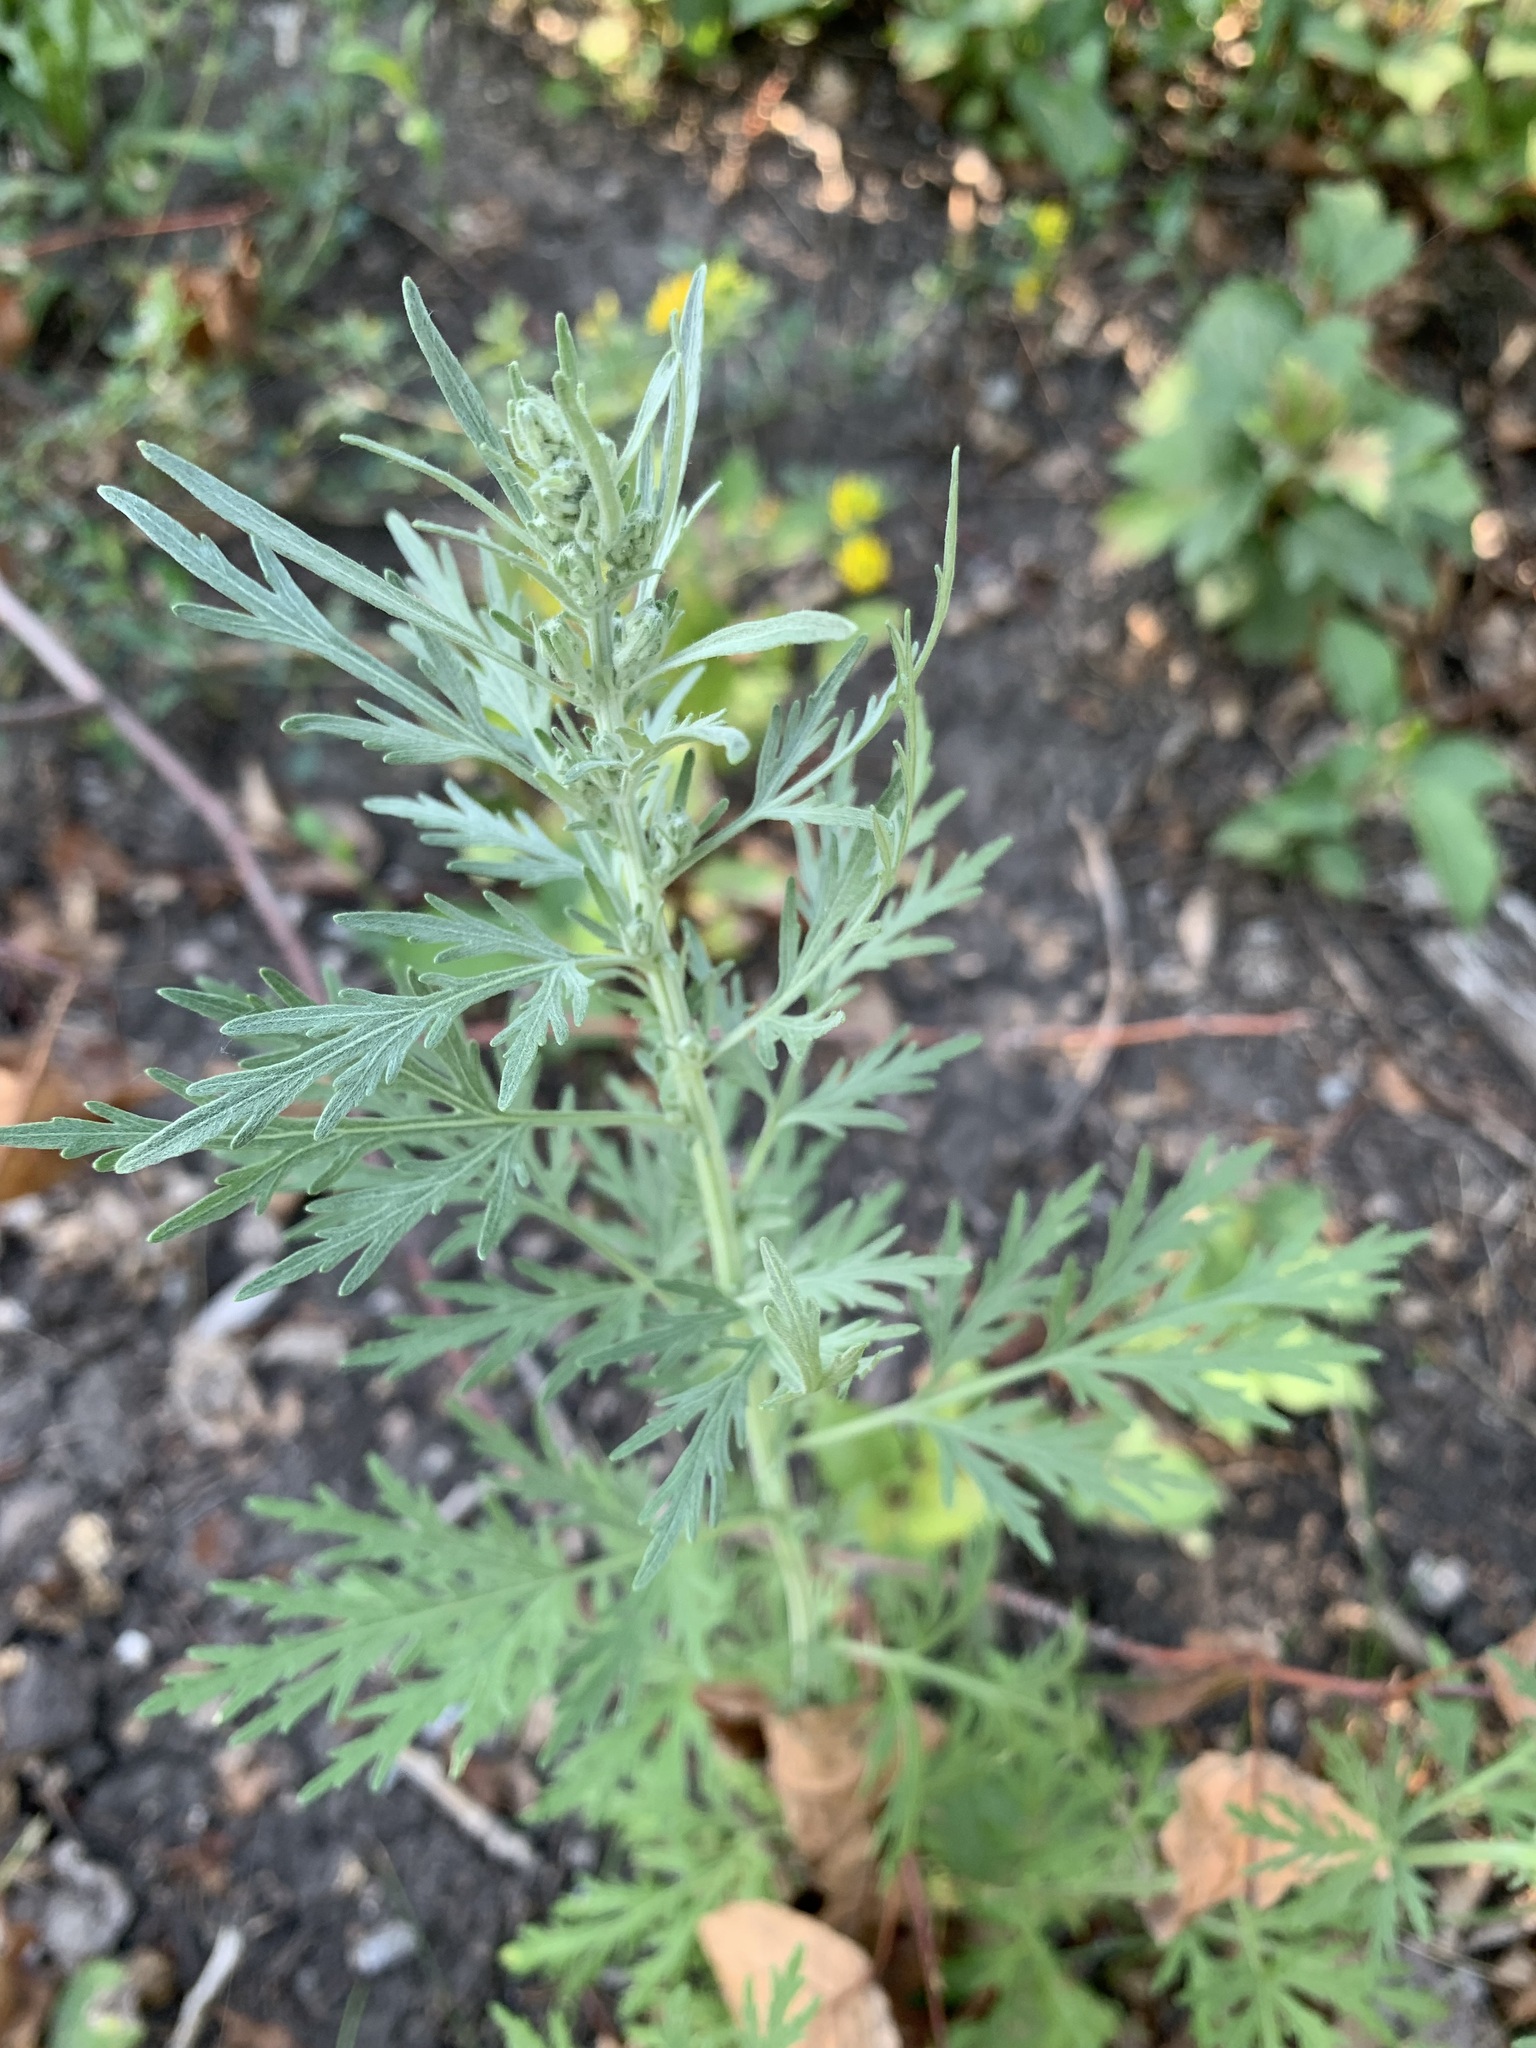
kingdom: Plantae
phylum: Tracheophyta
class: Magnoliopsida
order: Asterales
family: Asteraceae
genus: Artemisia
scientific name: Artemisia sieversiana
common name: Sieversian wormwood
